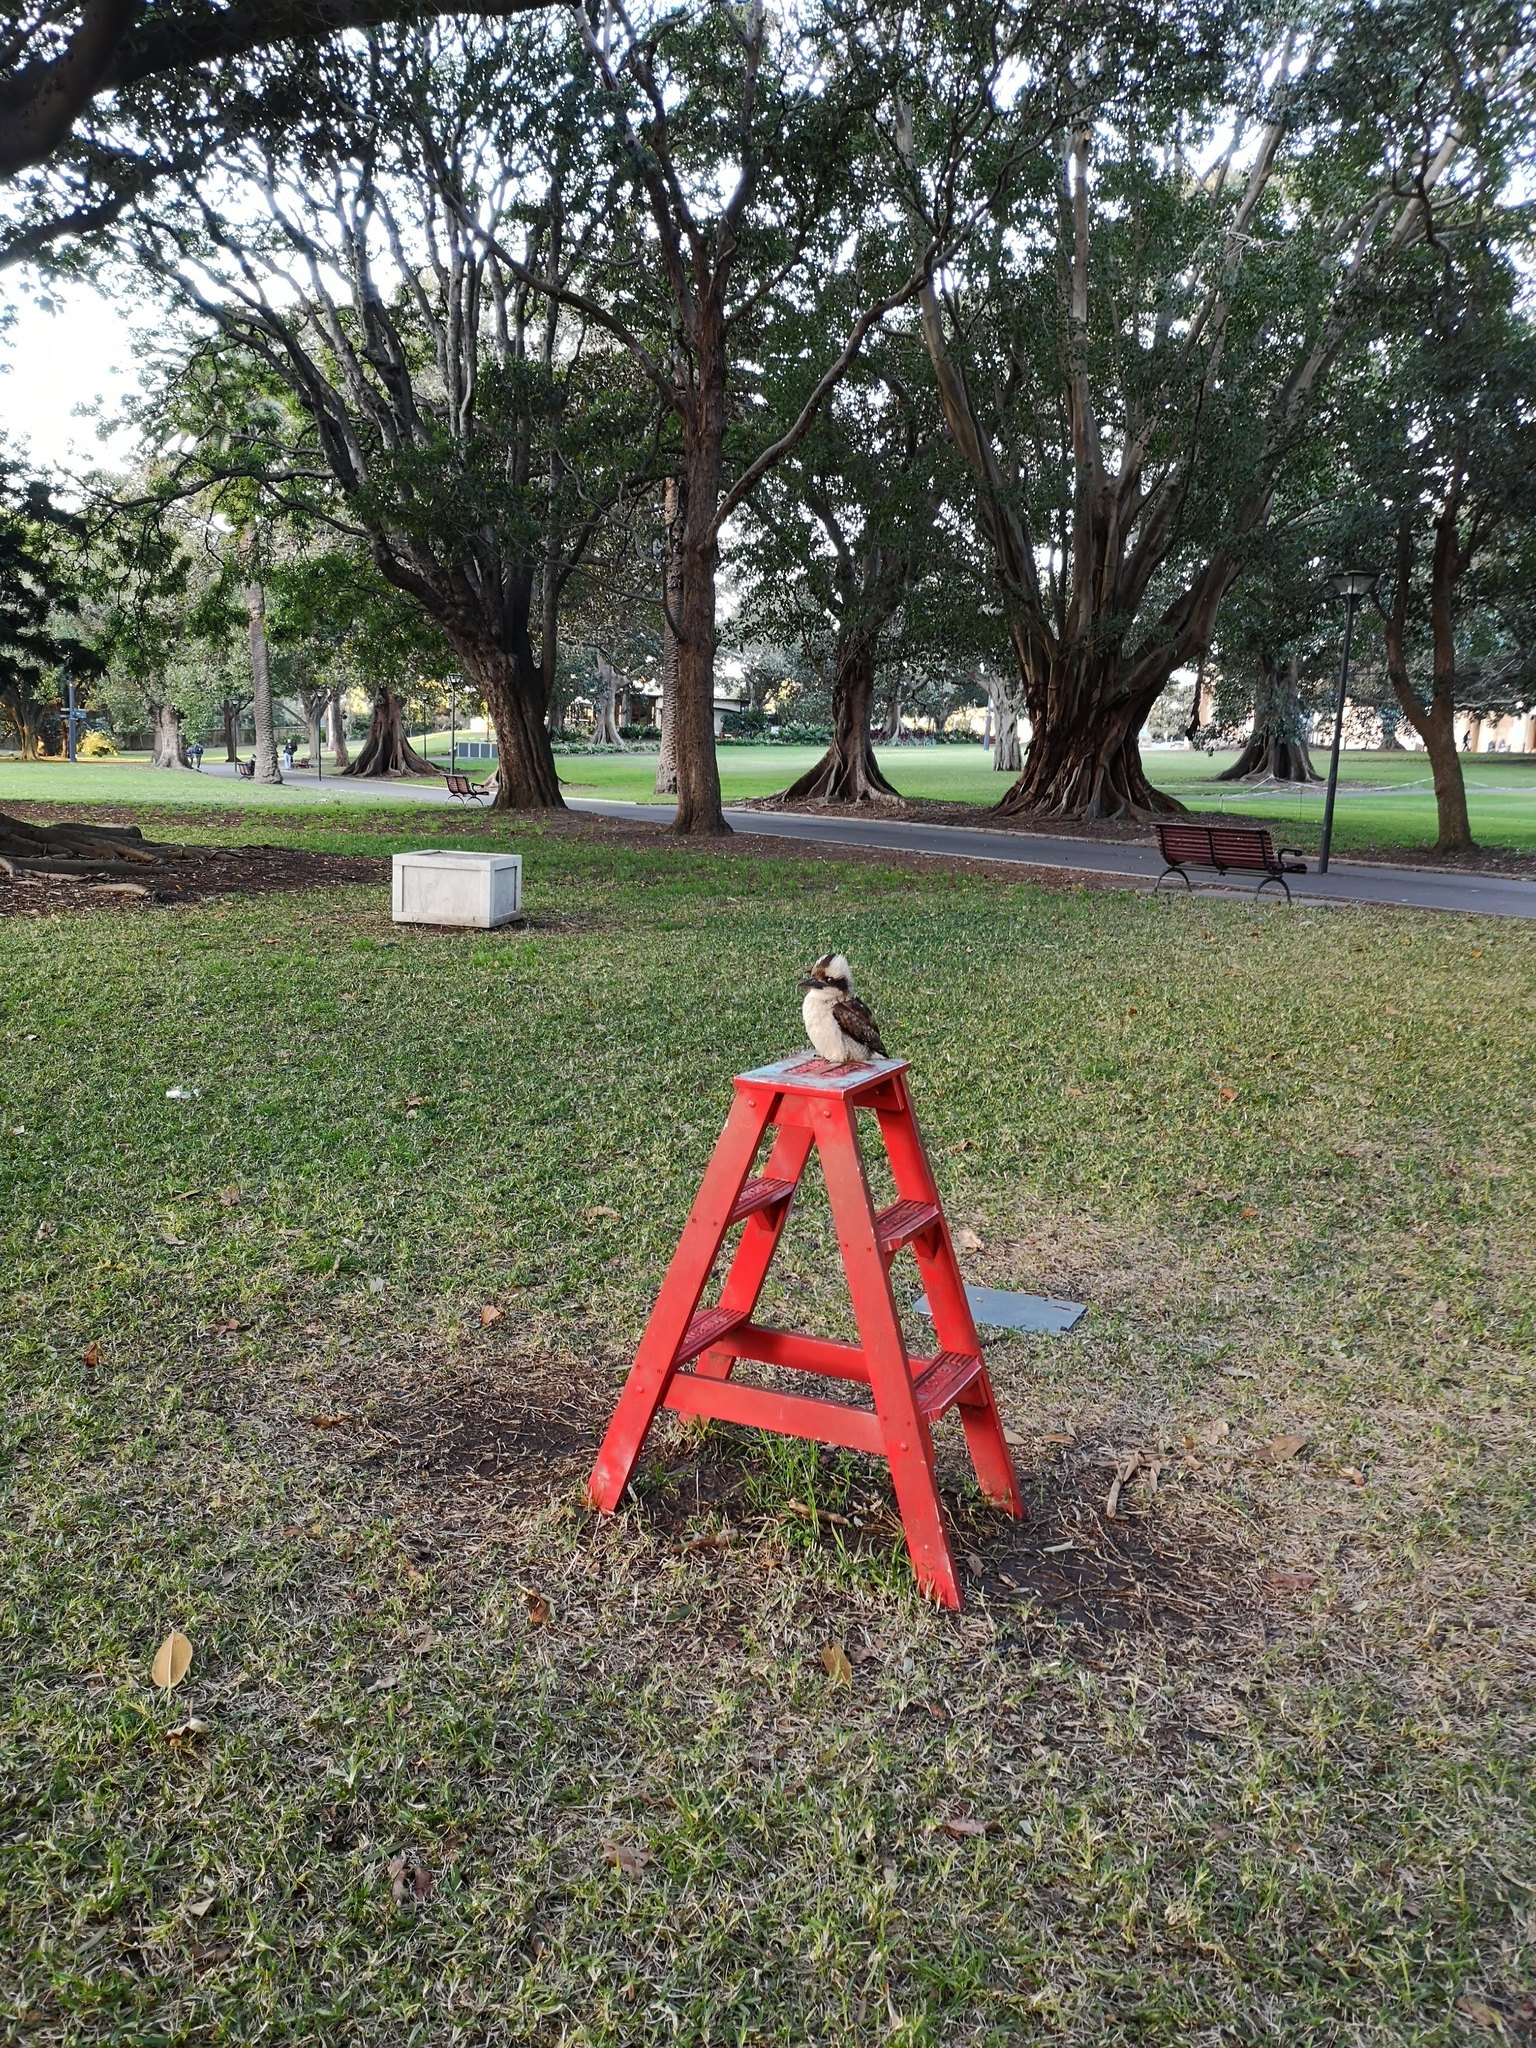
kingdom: Animalia
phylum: Chordata
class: Aves
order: Coraciiformes
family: Alcedinidae
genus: Dacelo
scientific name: Dacelo novaeguineae
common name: Laughing kookaburra
